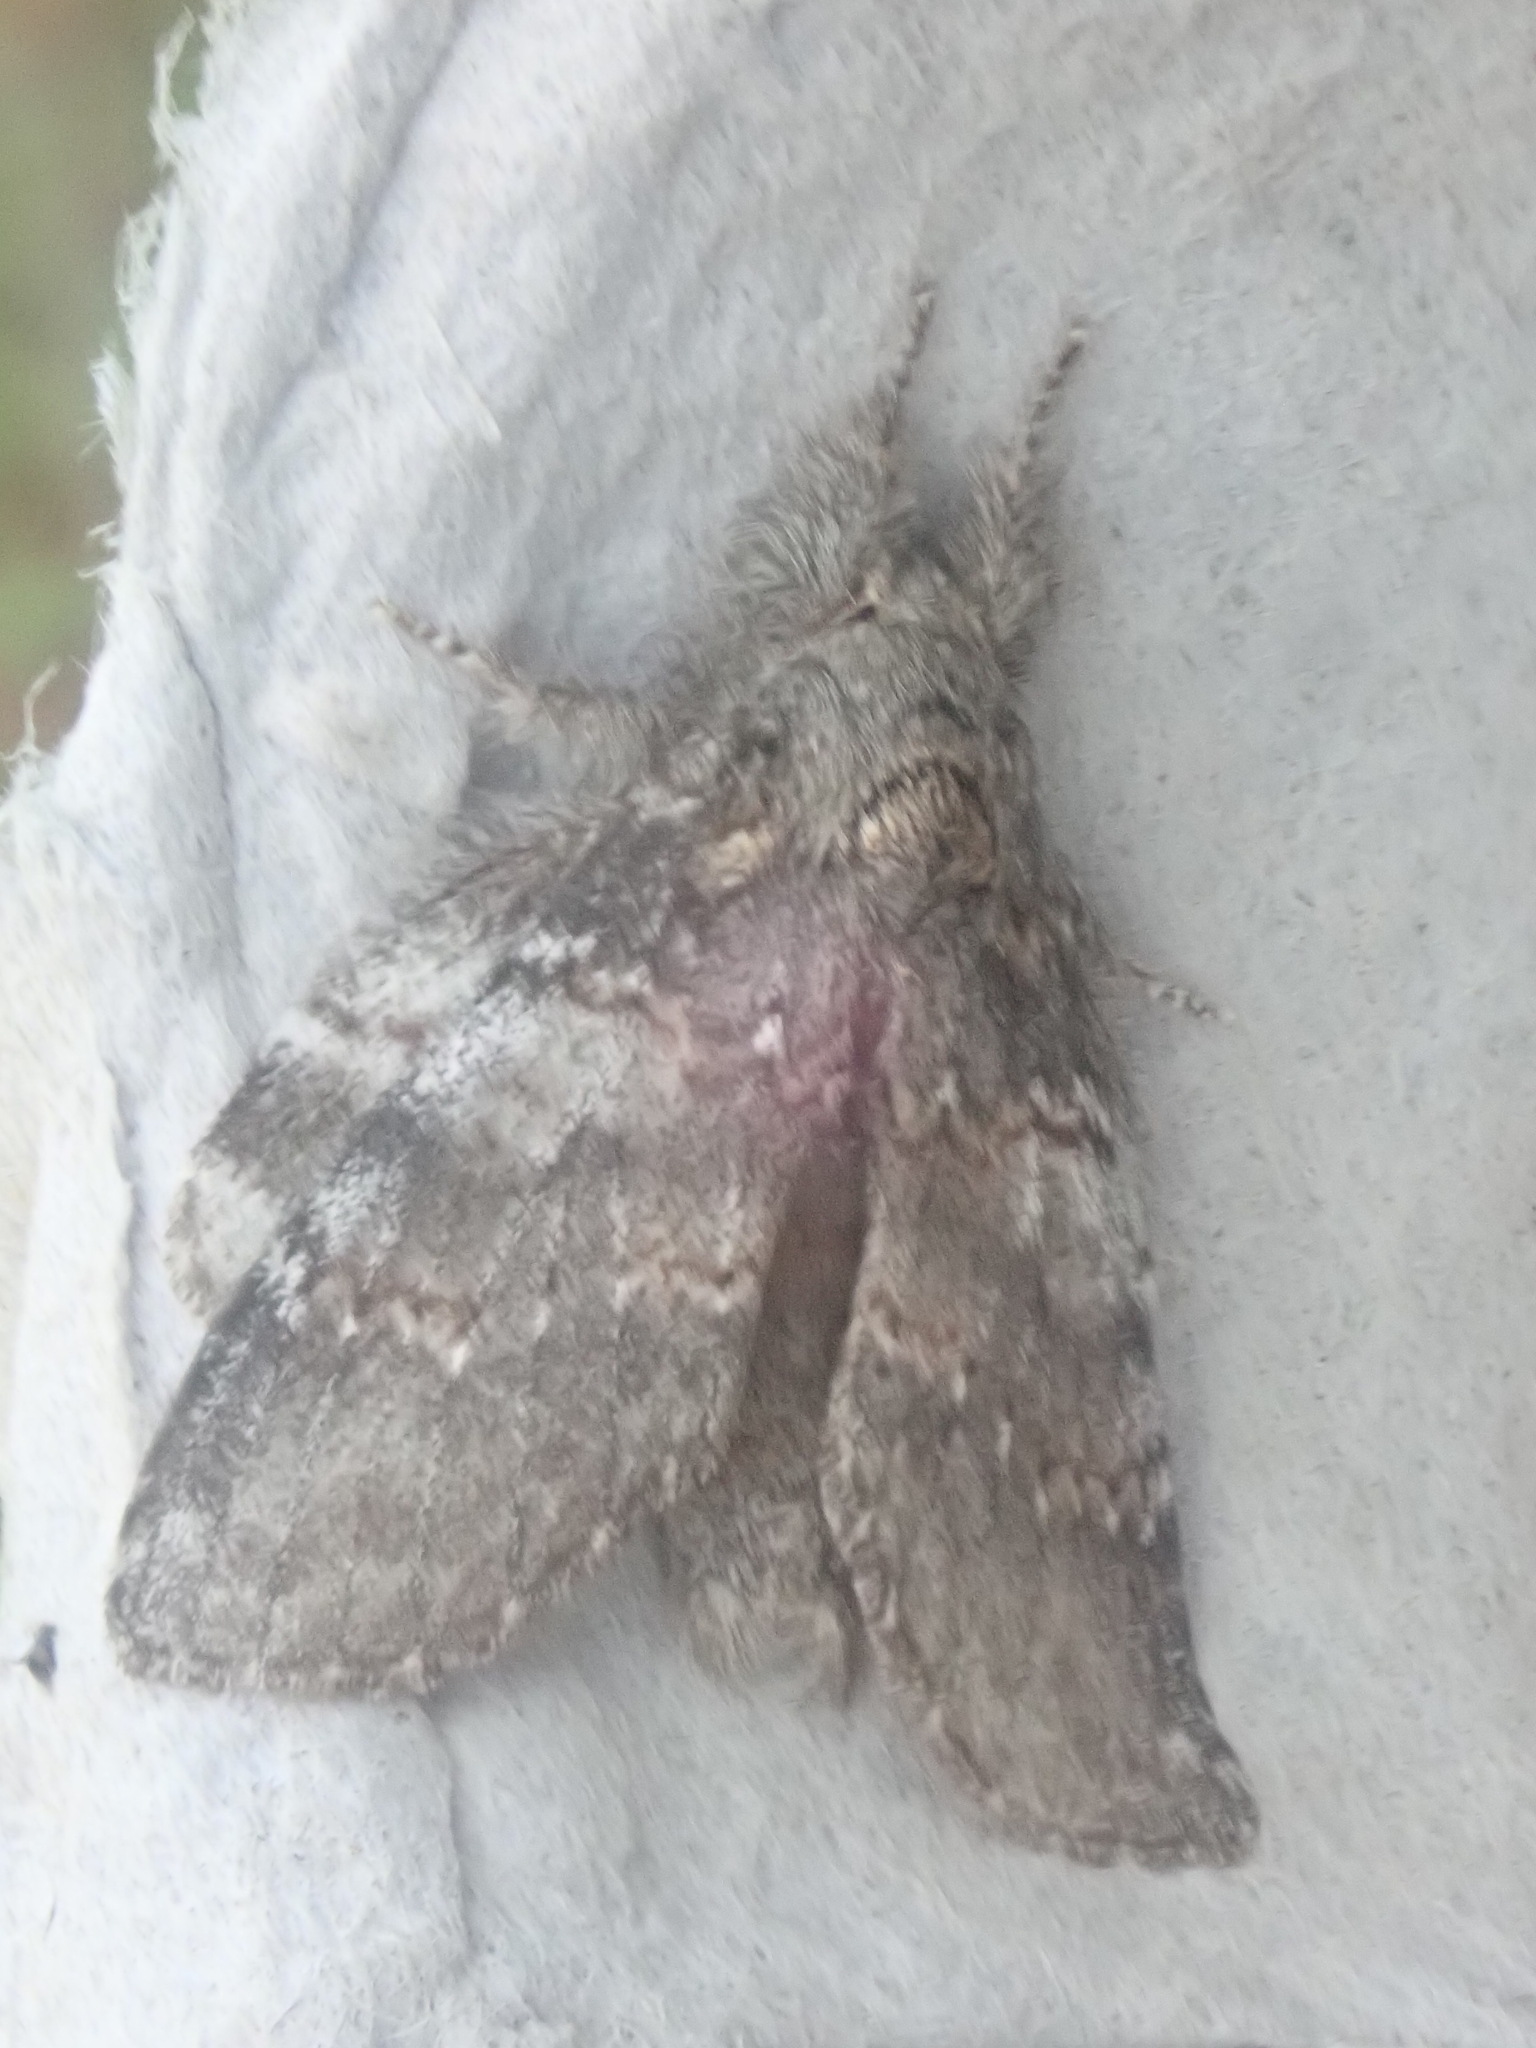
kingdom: Animalia
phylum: Arthropoda
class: Insecta
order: Lepidoptera
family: Notodontidae
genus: Peridea
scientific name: Peridea angulosa
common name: Angulose prominent
